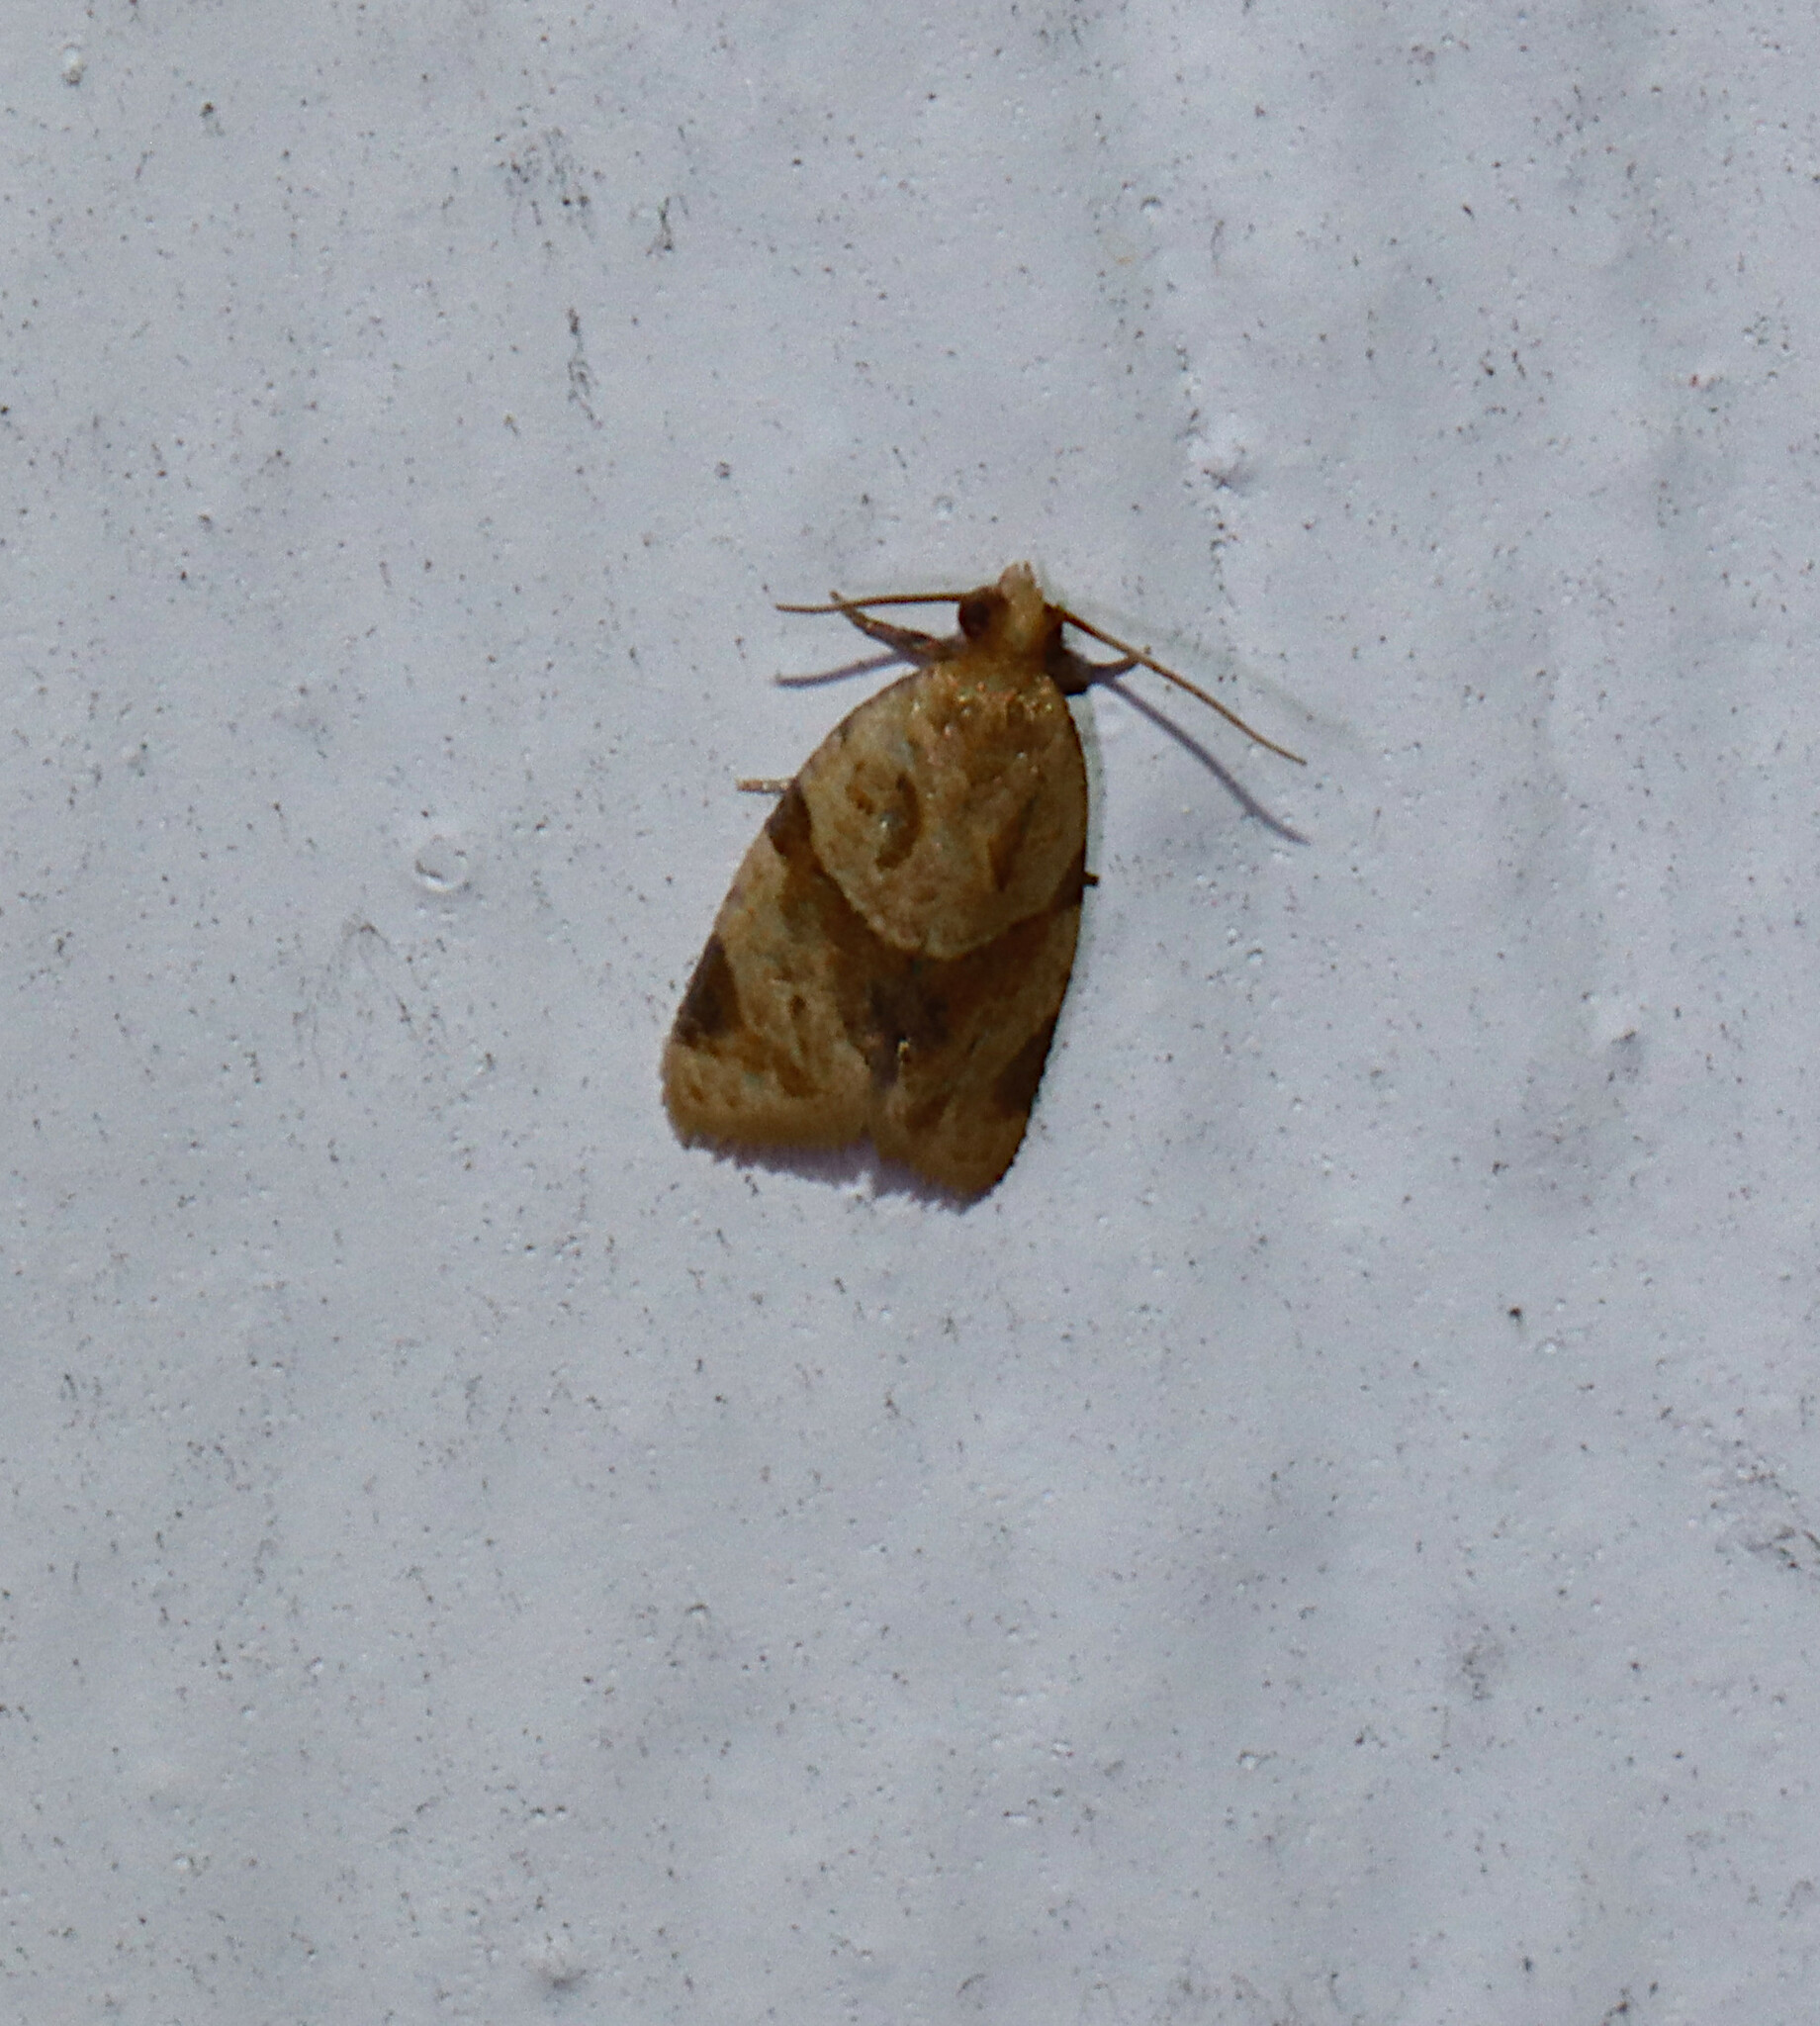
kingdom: Animalia
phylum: Arthropoda
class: Insecta
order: Lepidoptera
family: Tortricidae
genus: Clepsis
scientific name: Clepsis peritana
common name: Garden tortrix
